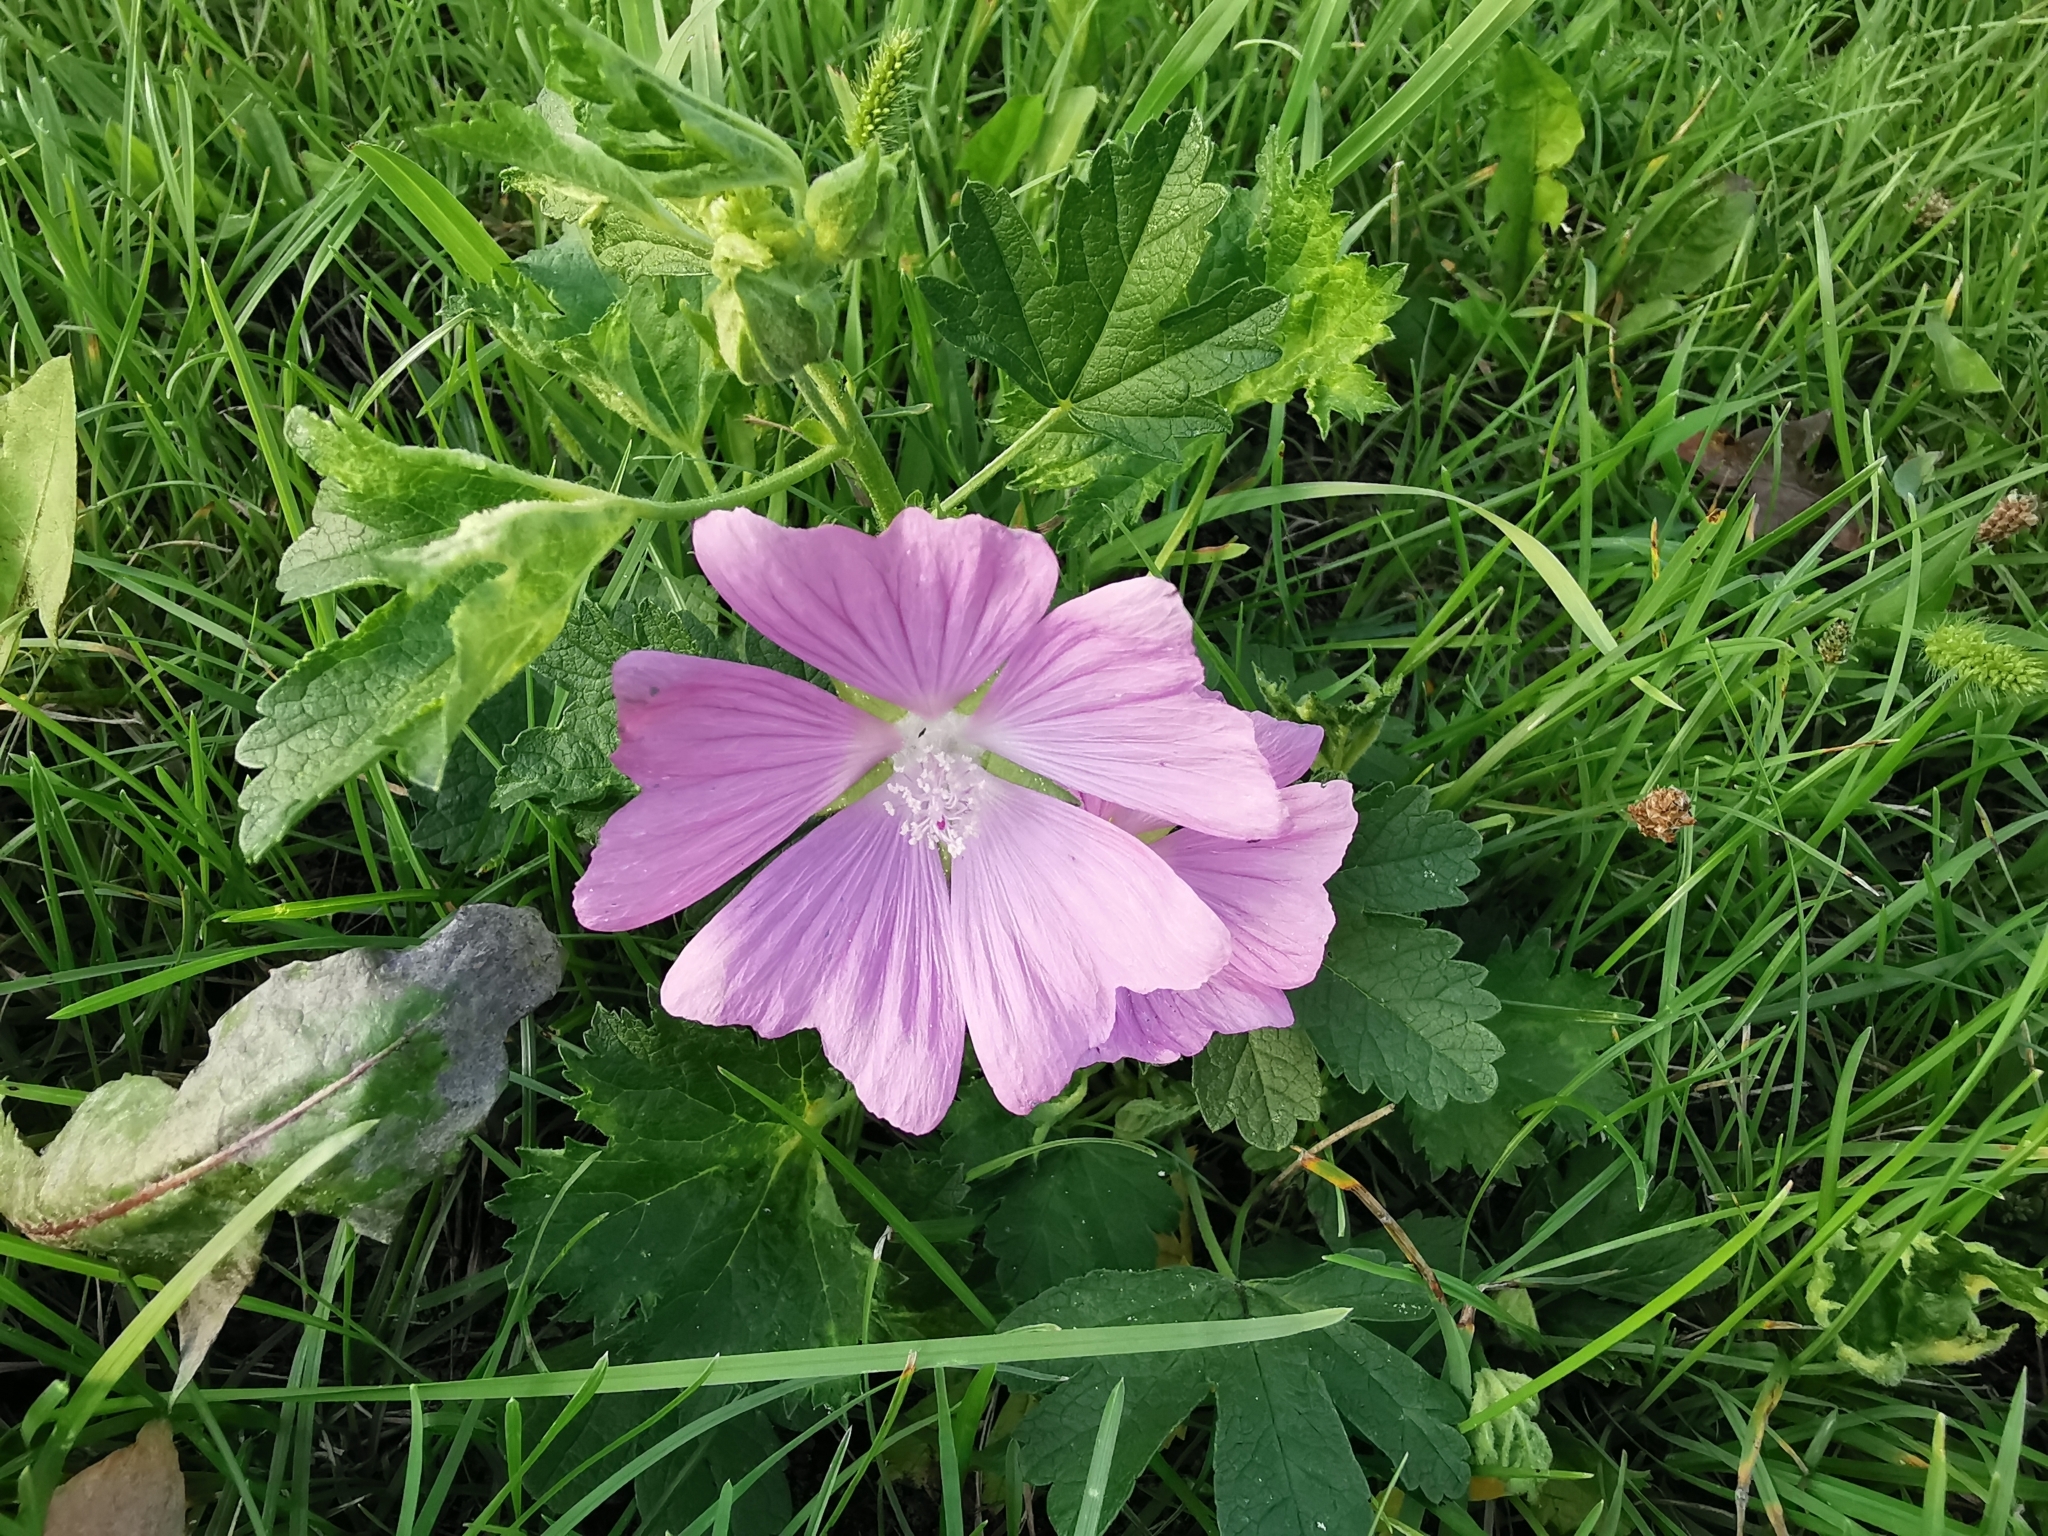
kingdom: Plantae
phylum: Tracheophyta
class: Magnoliopsida
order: Malvales
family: Malvaceae
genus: Malva
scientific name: Malva alcea
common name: Greater musk-mallow
